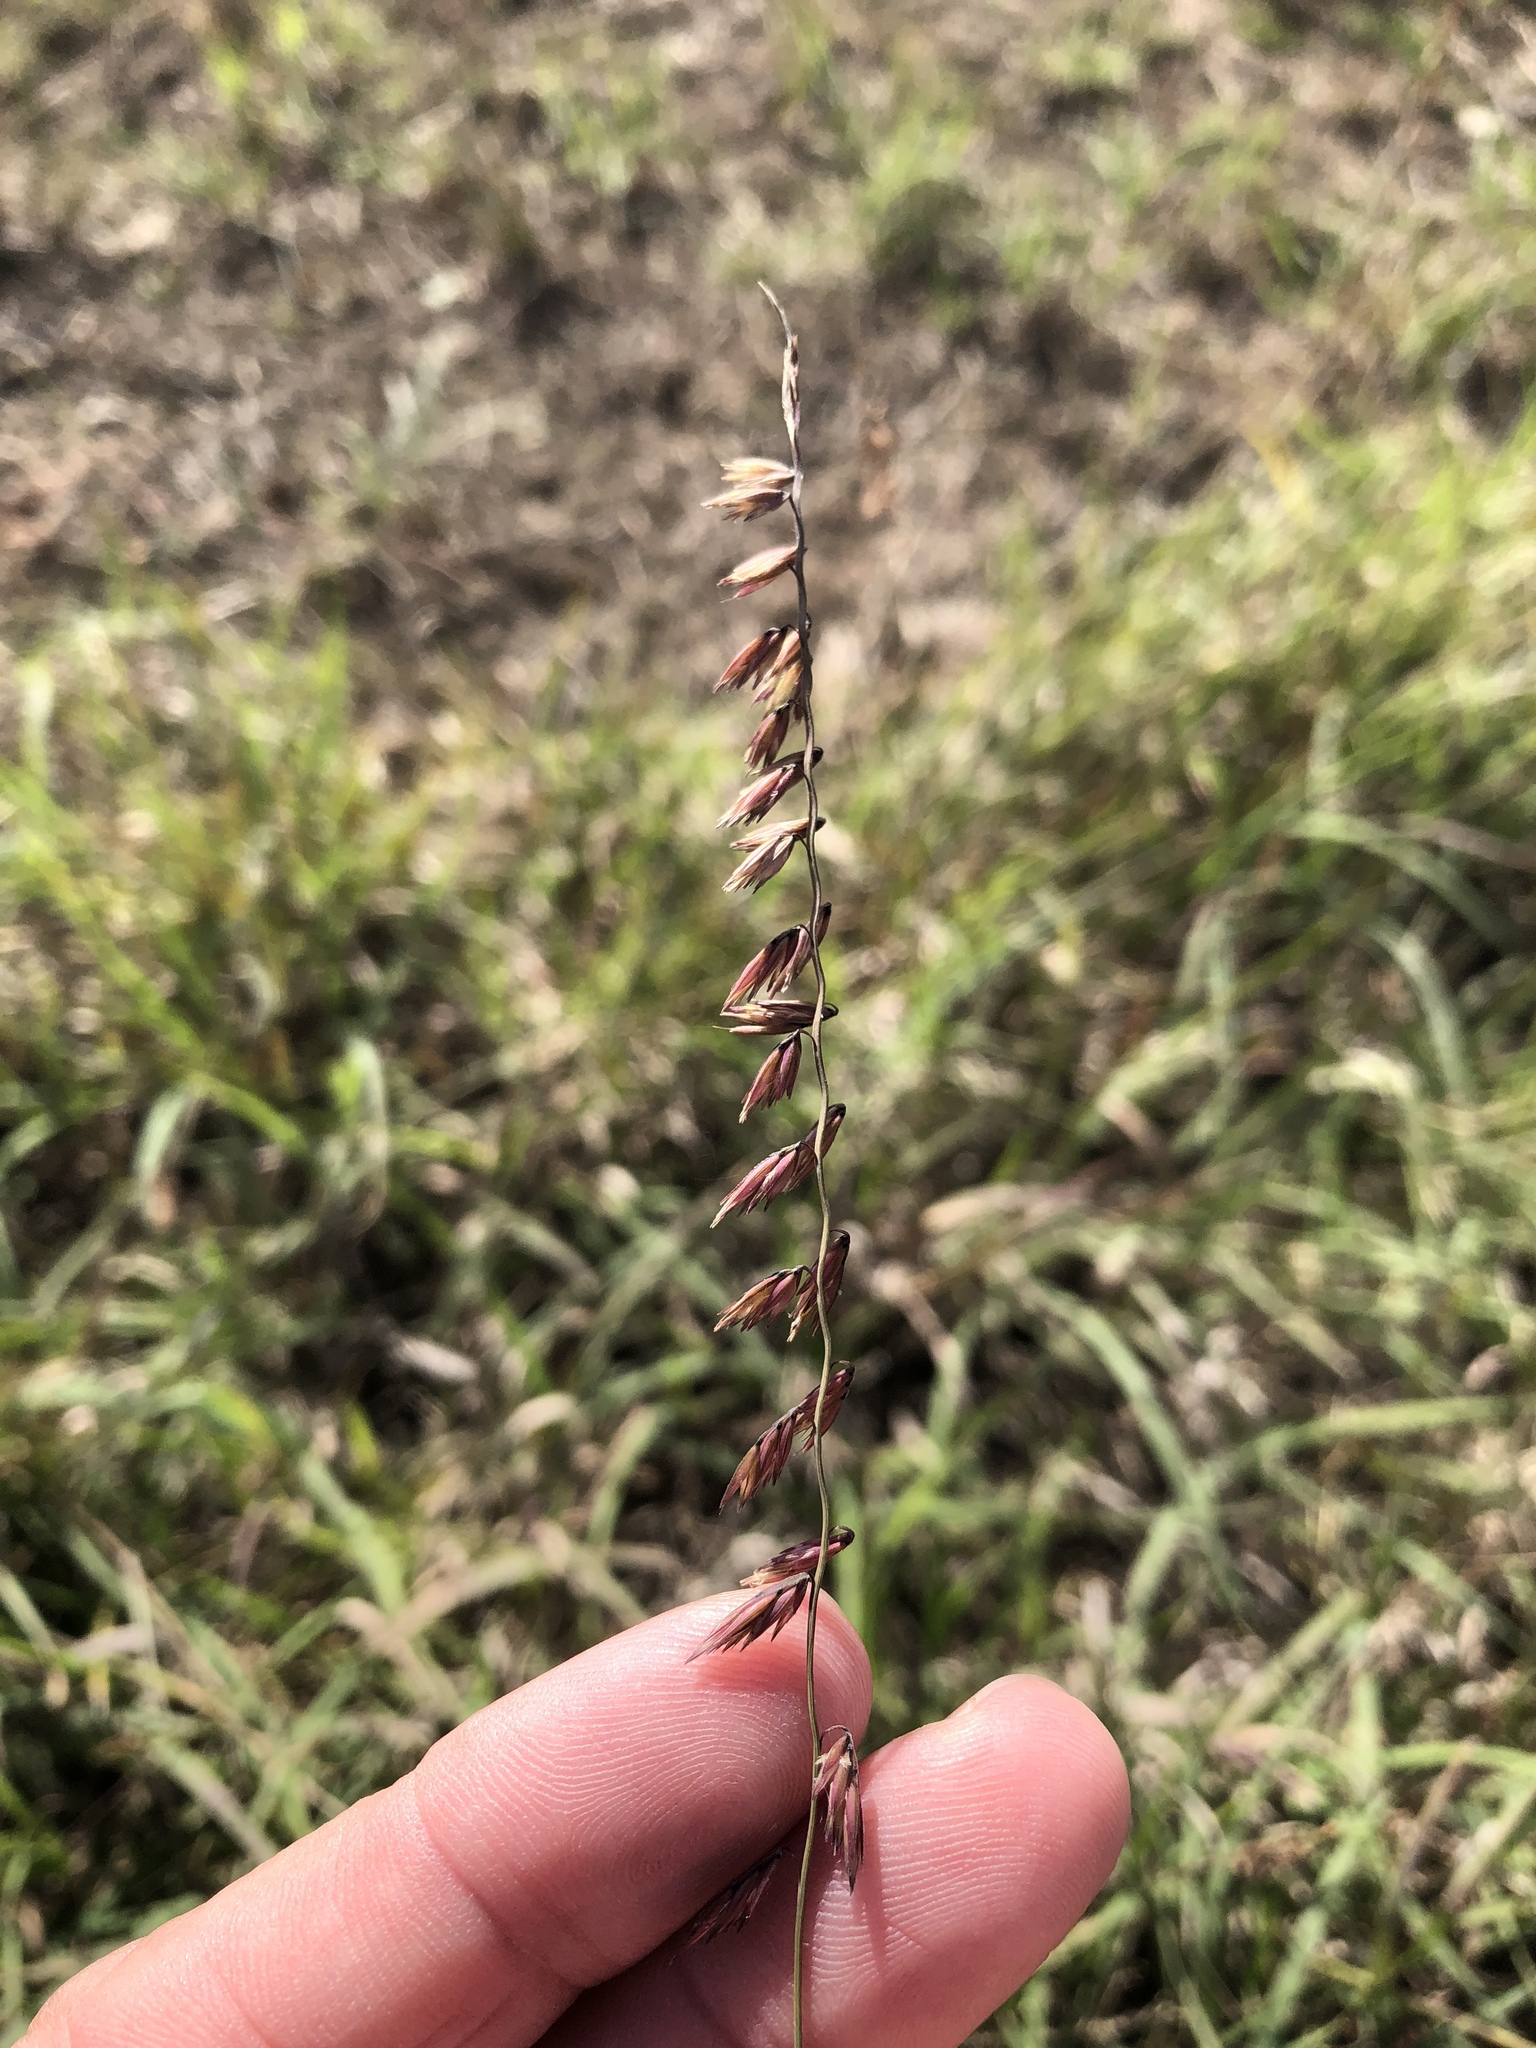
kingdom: Plantae
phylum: Tracheophyta
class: Liliopsida
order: Poales
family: Poaceae
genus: Bouteloua
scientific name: Bouteloua curtipendula
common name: Side-oats grama
